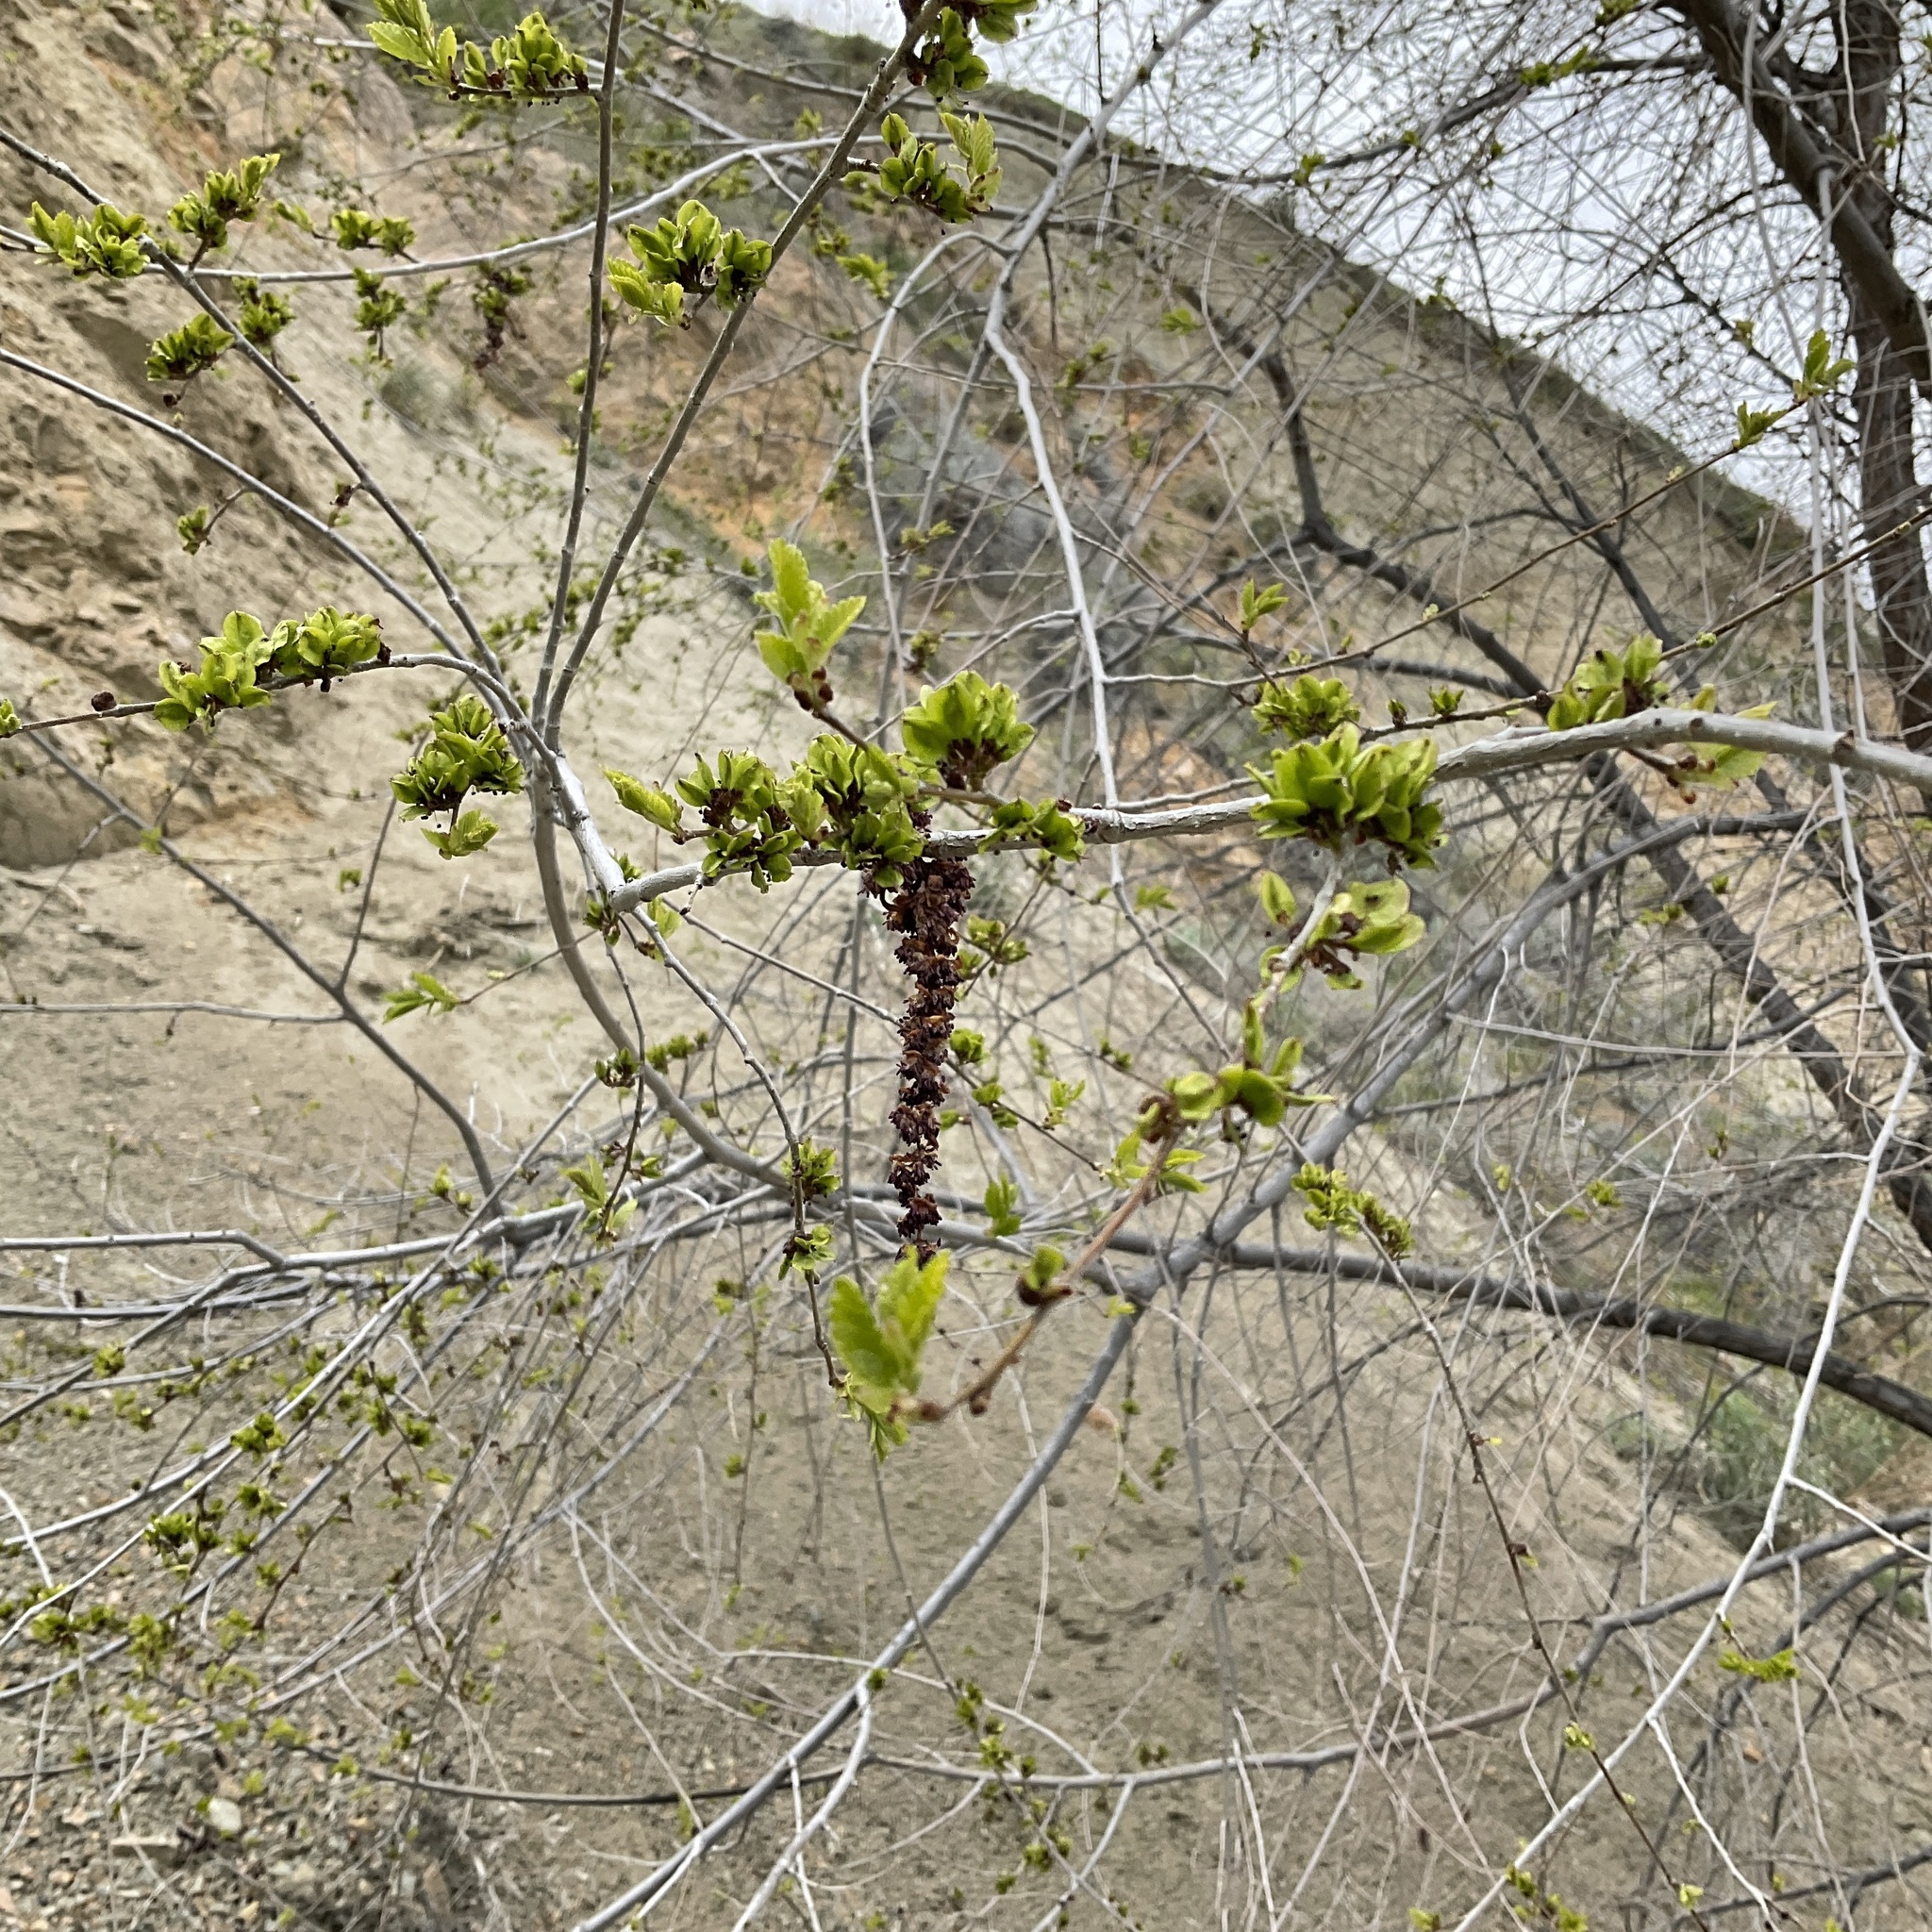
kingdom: Plantae
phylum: Tracheophyta
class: Magnoliopsida
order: Rosales
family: Ulmaceae
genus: Ulmus
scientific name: Ulmus pumila
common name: Siberian elm
